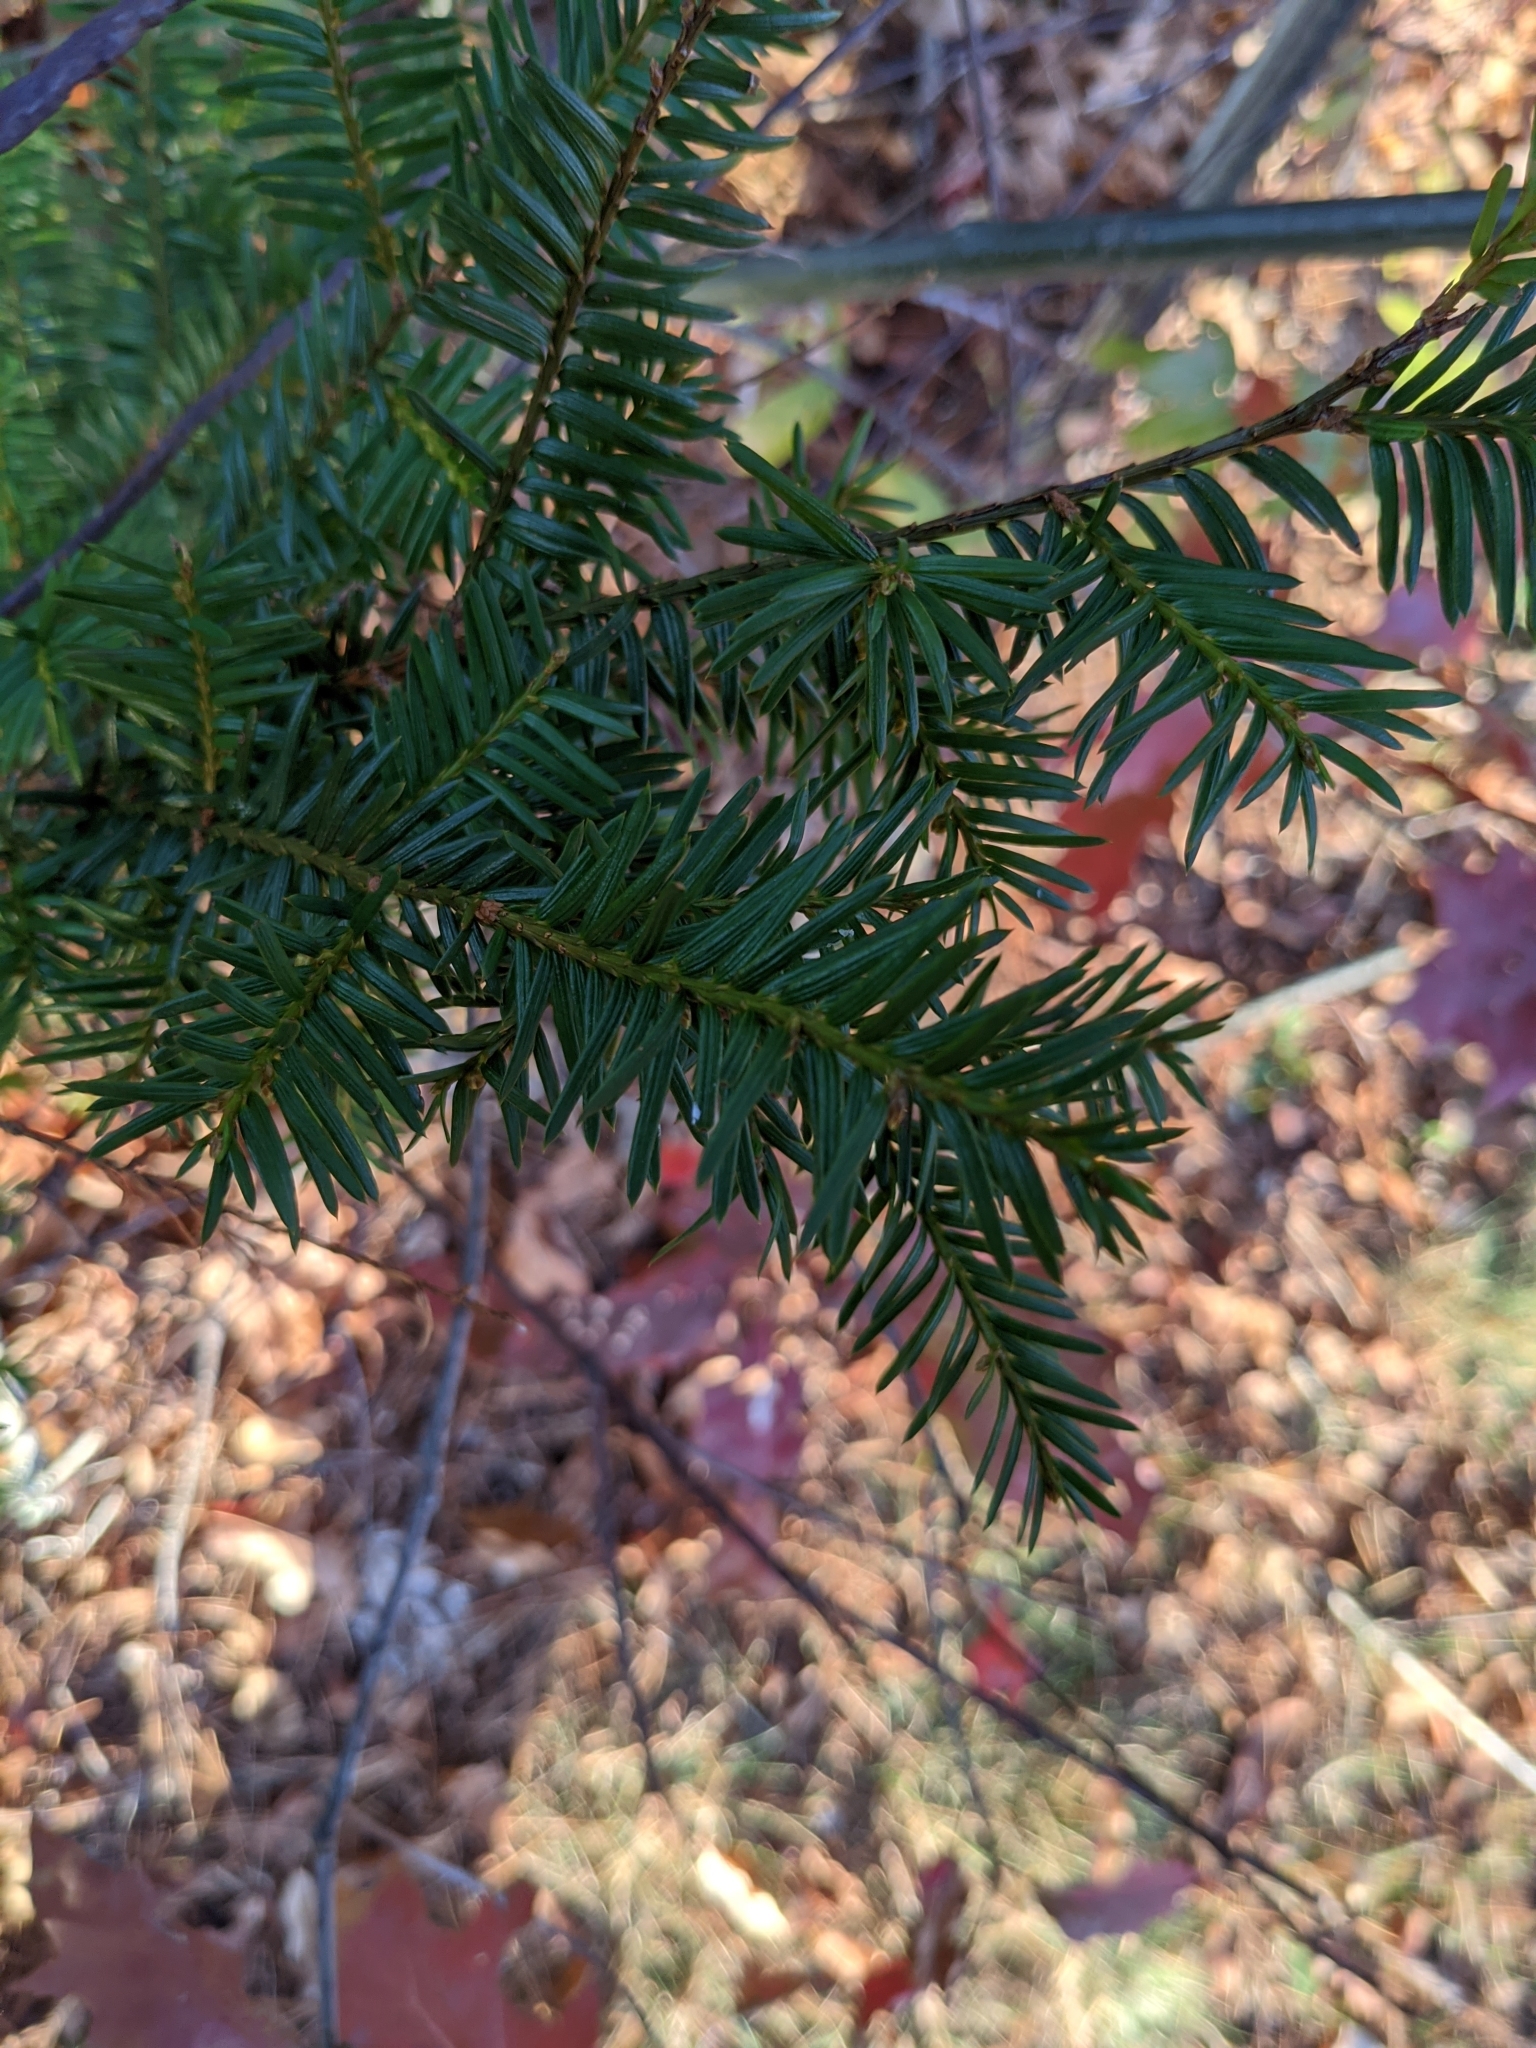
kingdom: Plantae
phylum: Tracheophyta
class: Pinopsida
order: Pinales
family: Taxaceae
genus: Taxus
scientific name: Taxus canadensis
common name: American yew
